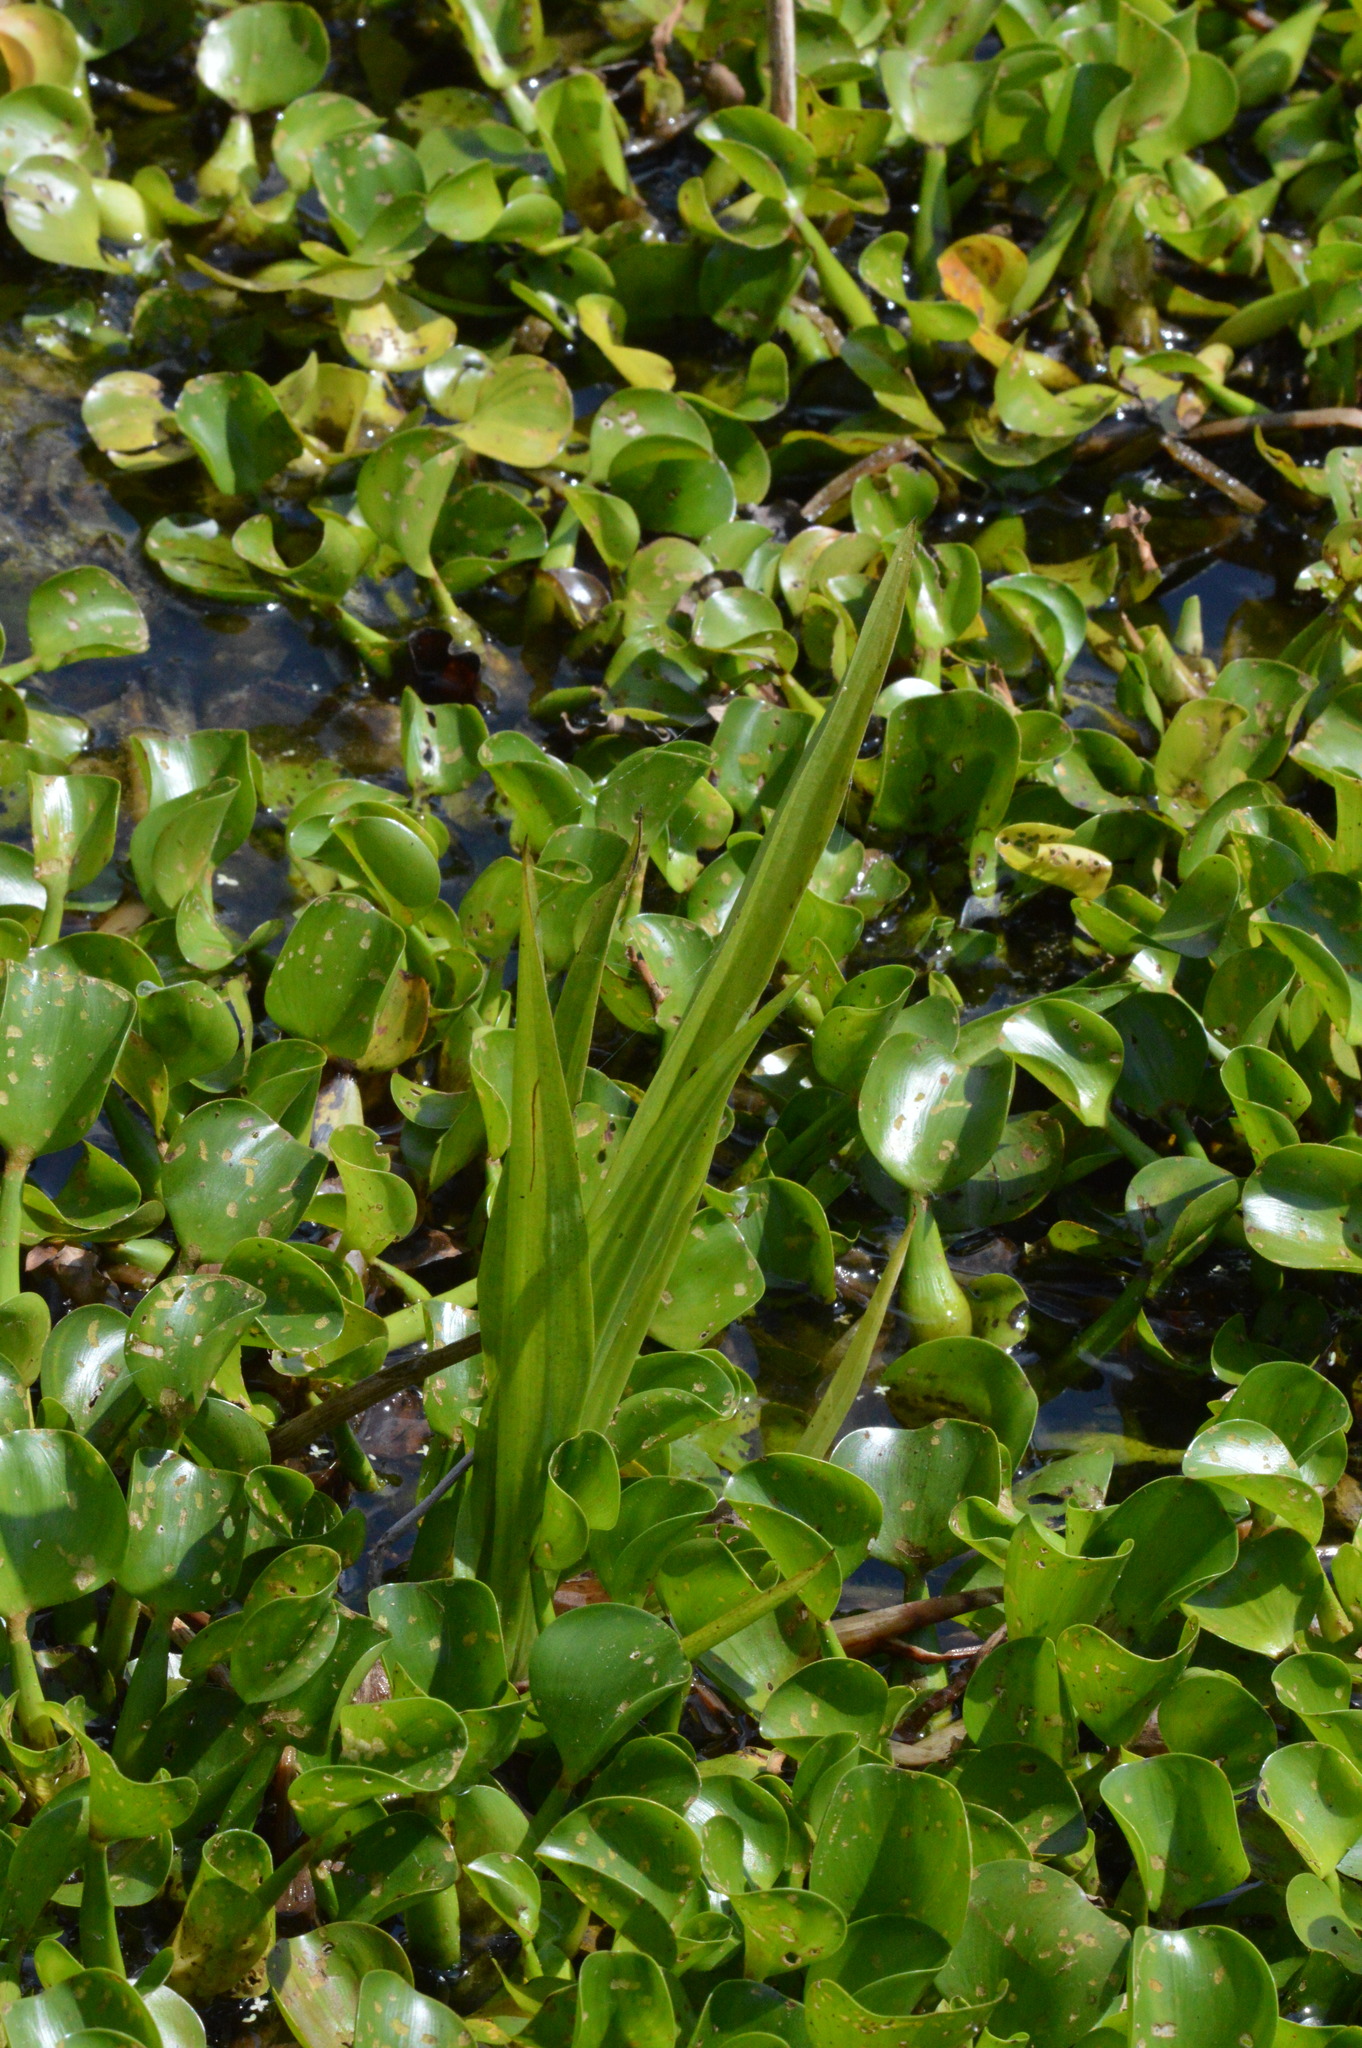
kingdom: Plantae
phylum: Tracheophyta
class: Liliopsida
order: Asparagales
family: Orchidaceae
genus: Habenaria
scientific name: Habenaria repens
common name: Water orchid
